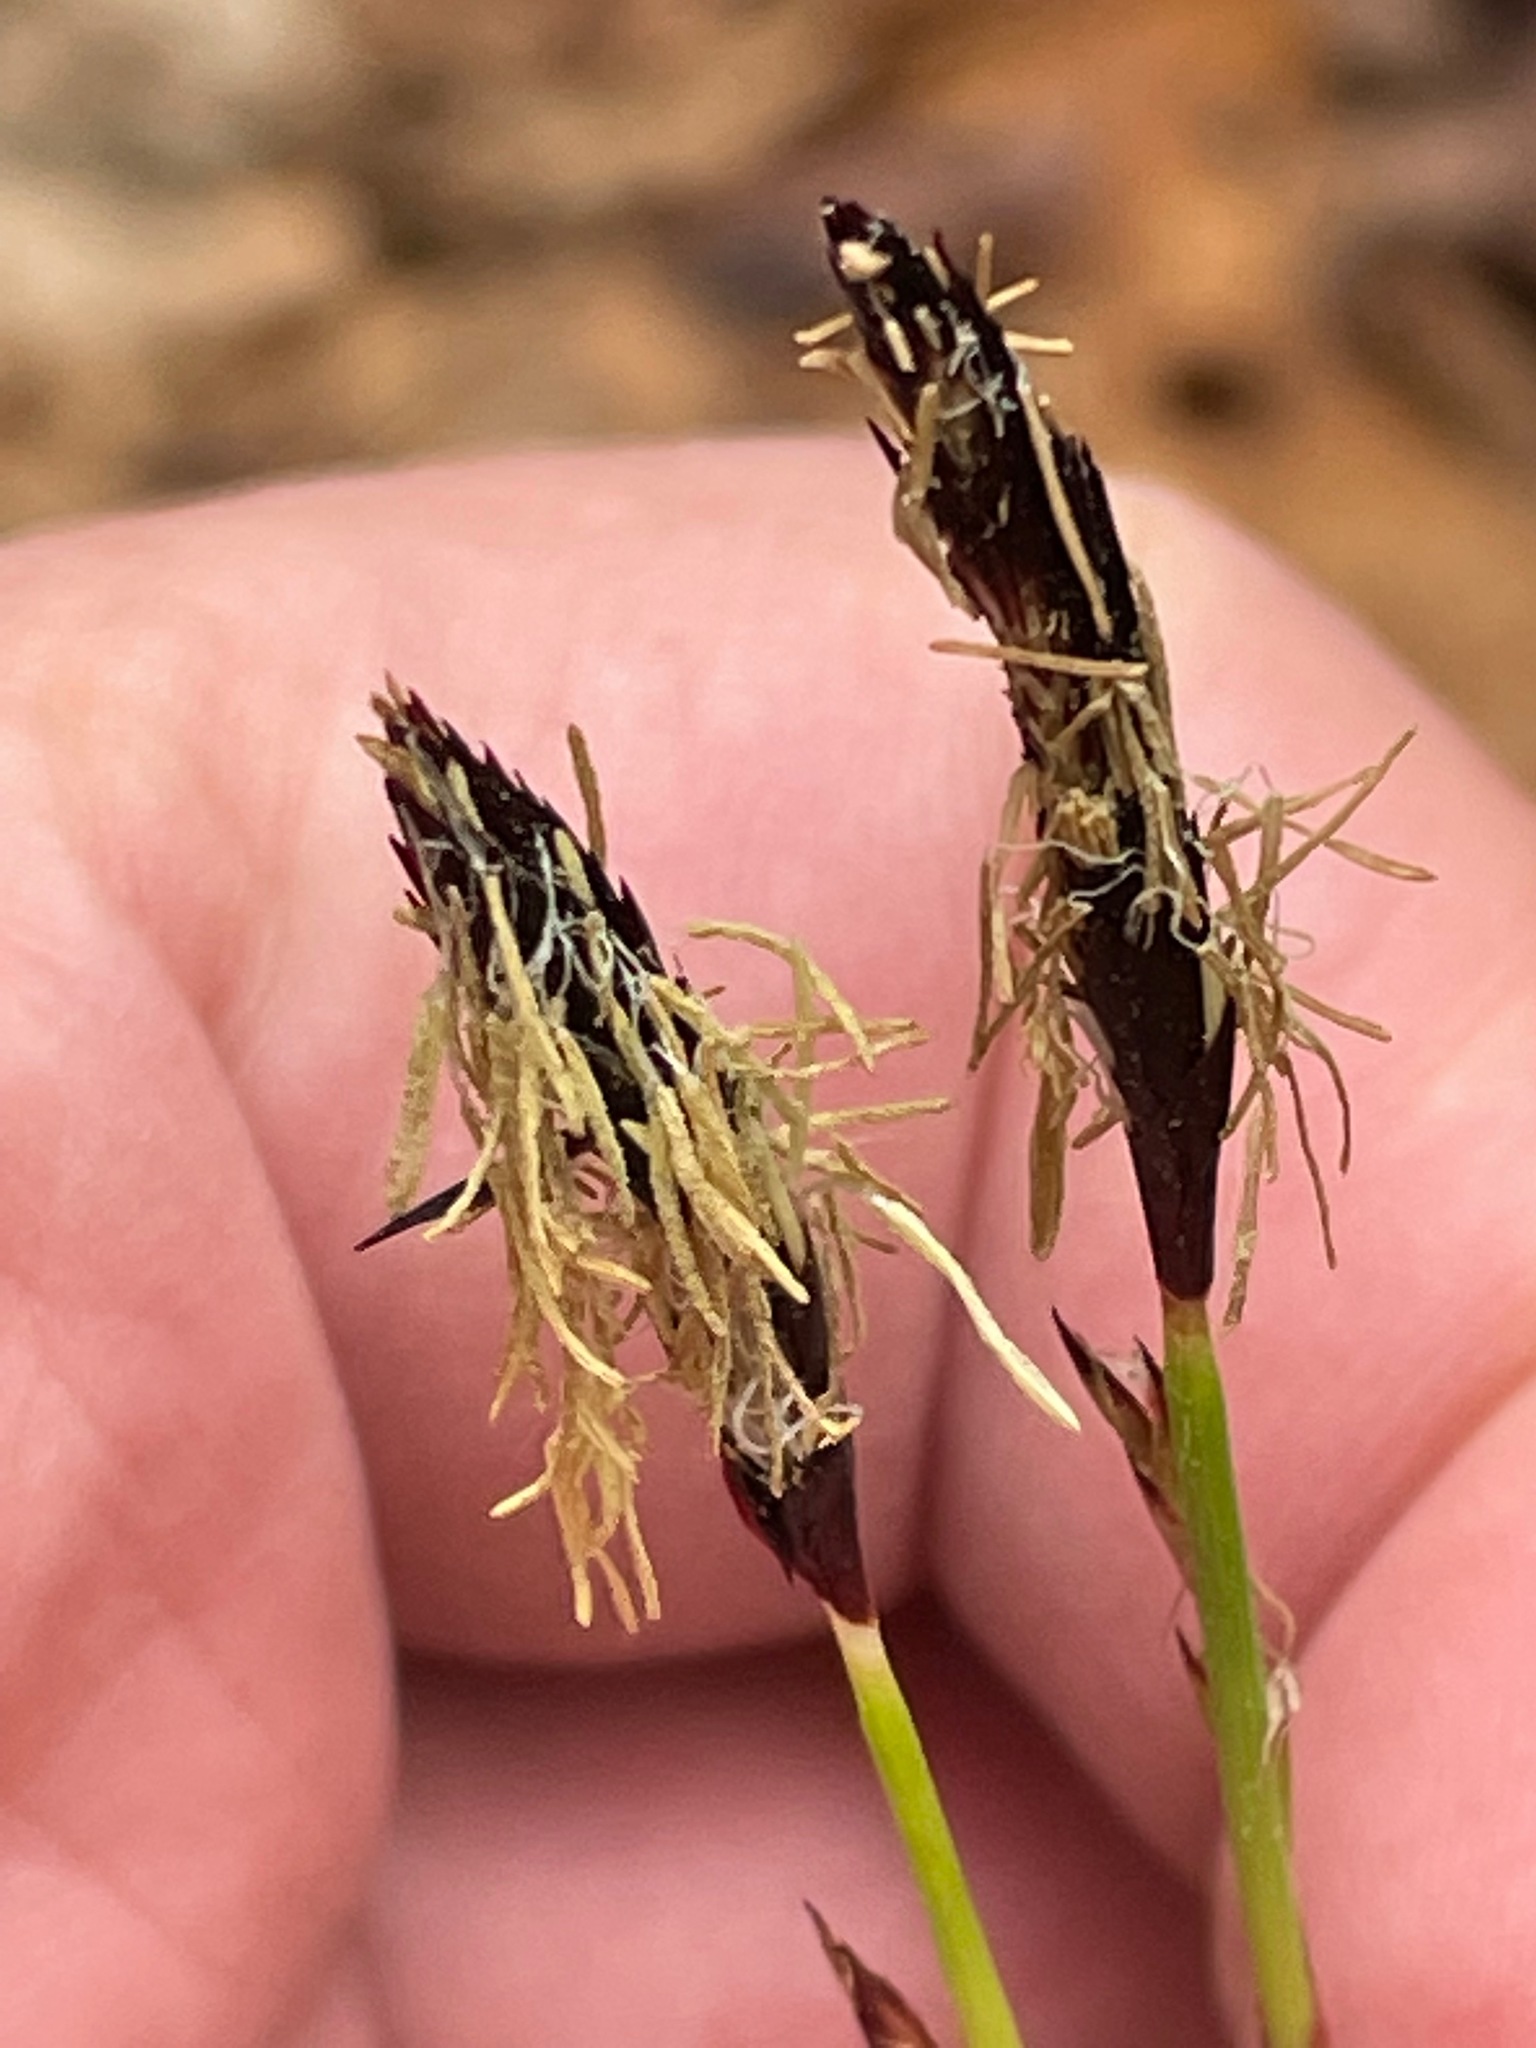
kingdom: Plantae
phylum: Tracheophyta
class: Liliopsida
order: Poales
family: Cyperaceae
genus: Carex
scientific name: Carex plantaginea
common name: Plantain-leaved sedge
